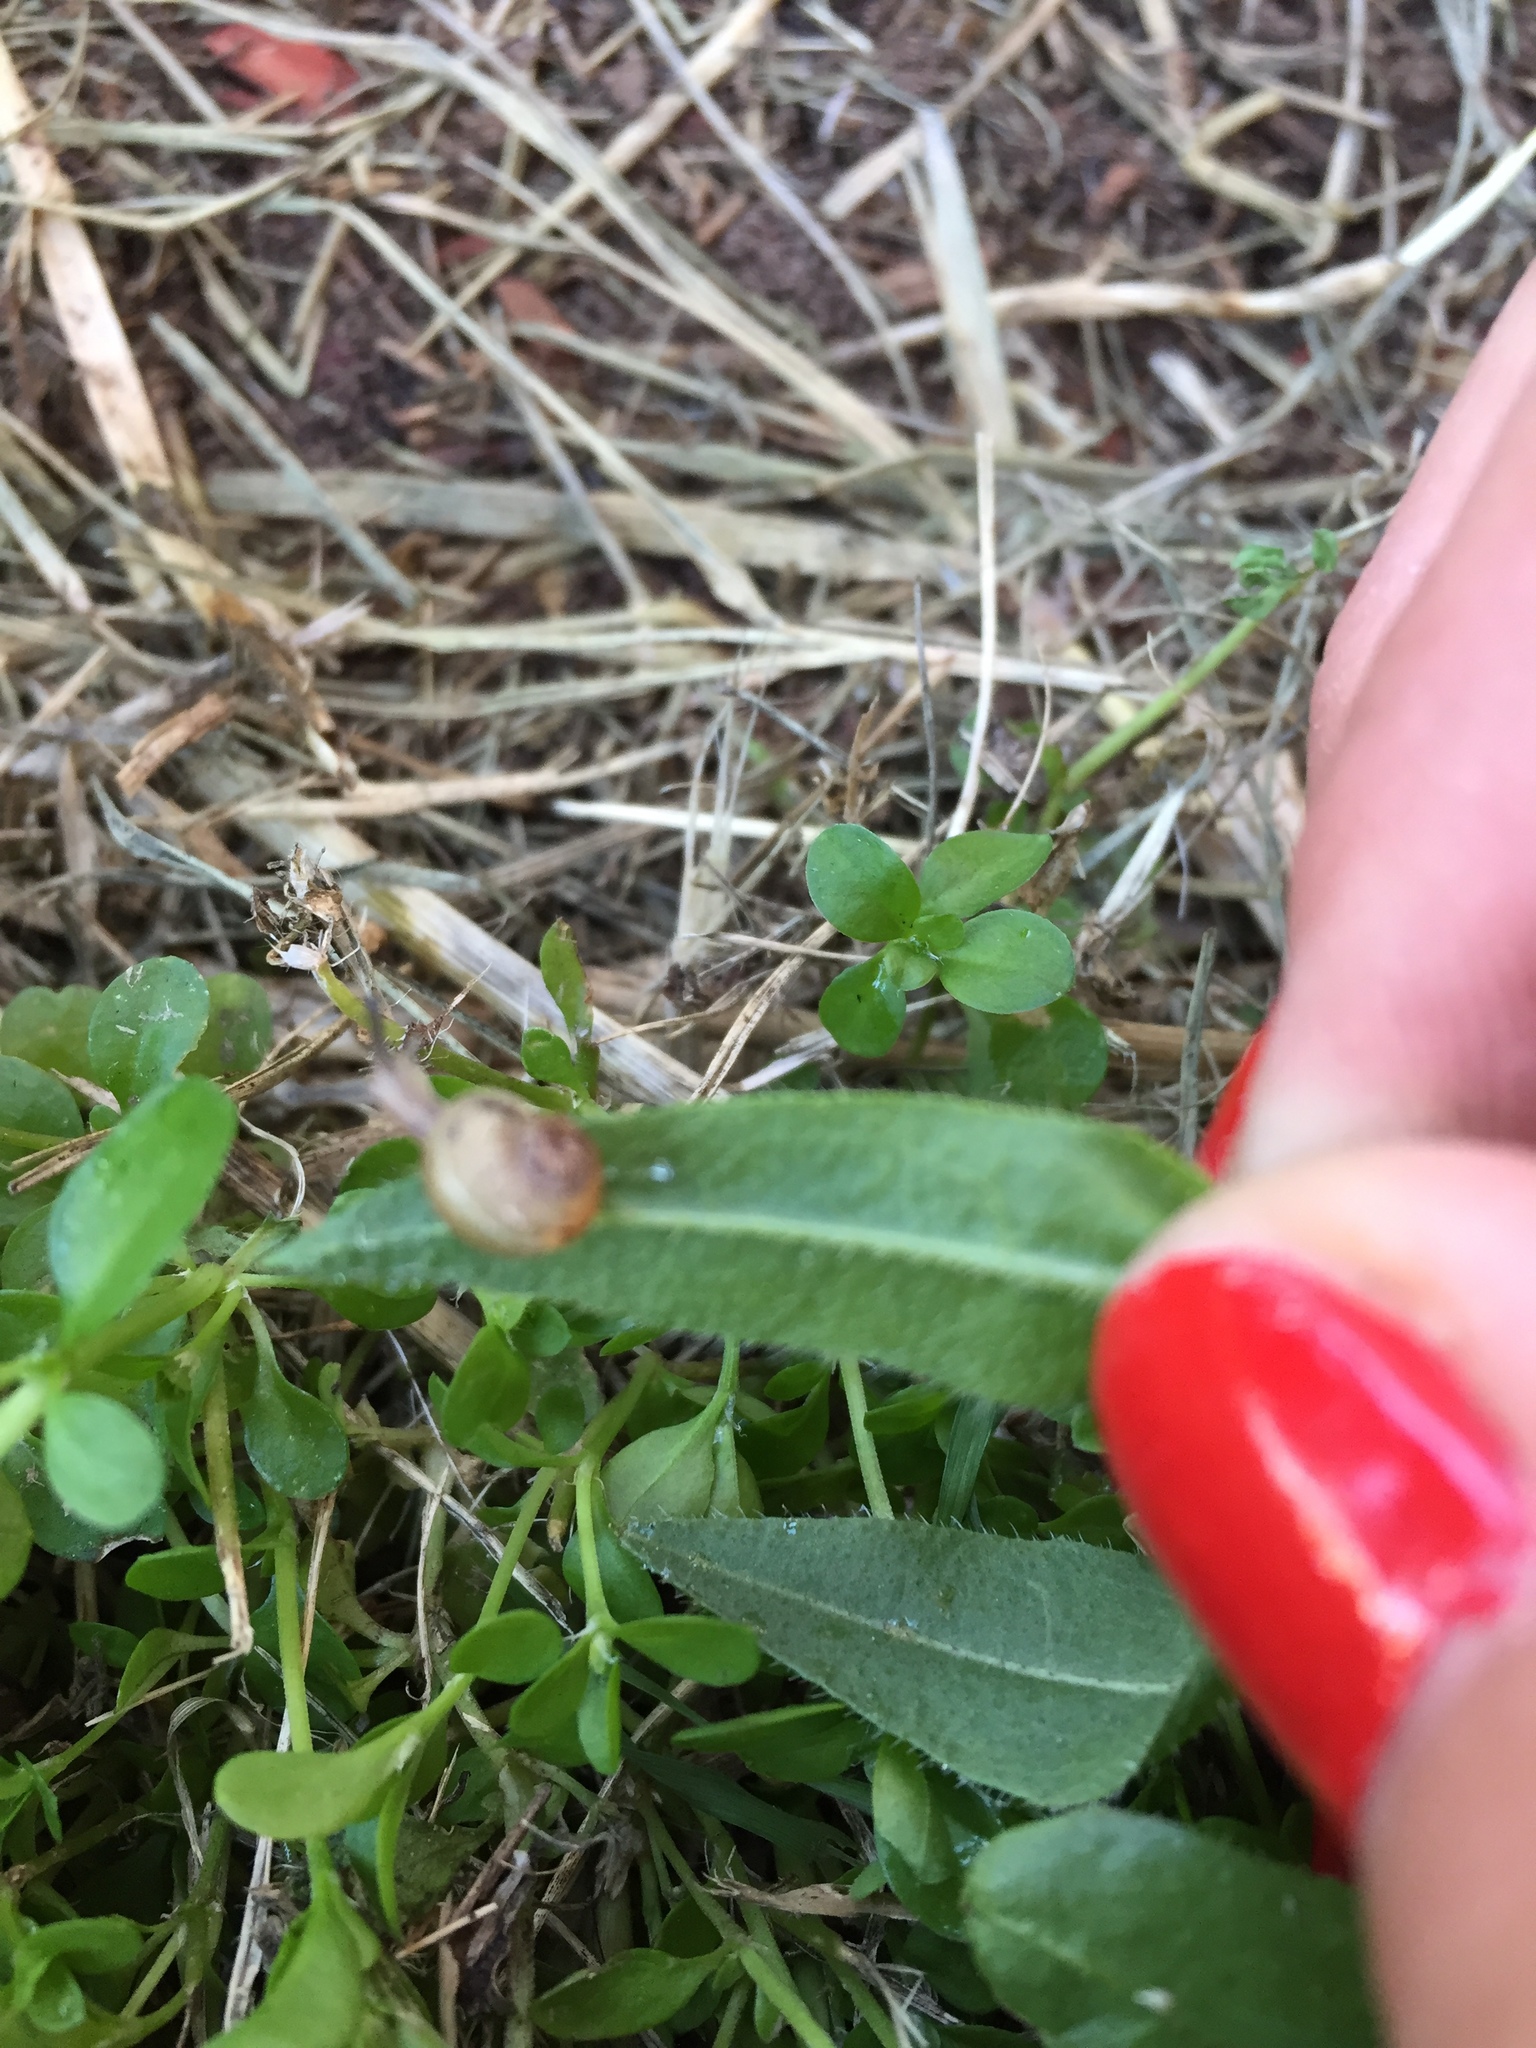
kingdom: Animalia
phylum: Mollusca
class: Gastropoda
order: Stylommatophora
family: Helicidae
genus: Cornu
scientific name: Cornu aspersum
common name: Brown garden snail
